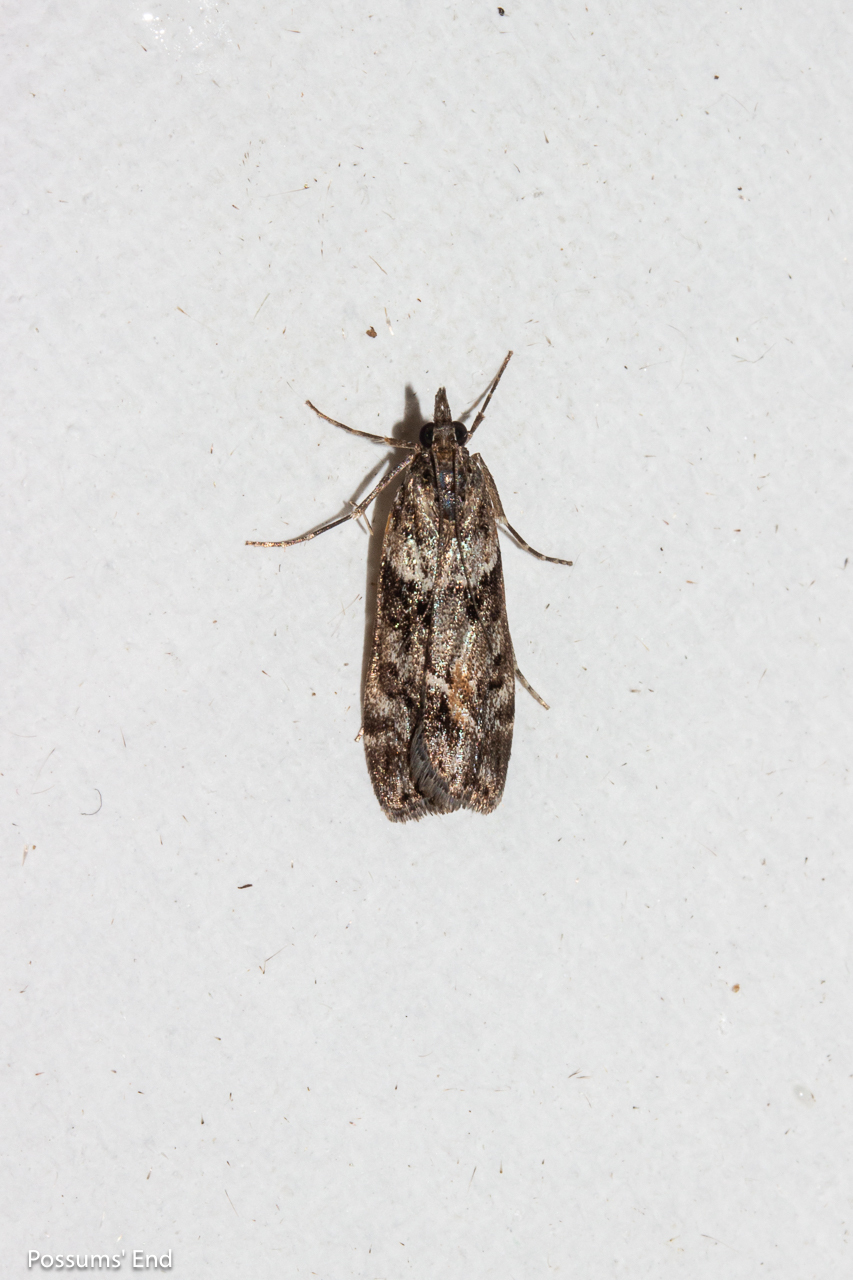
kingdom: Animalia
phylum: Arthropoda
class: Insecta
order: Lepidoptera
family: Crambidae
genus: Eudonia
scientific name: Eudonia submarginalis
